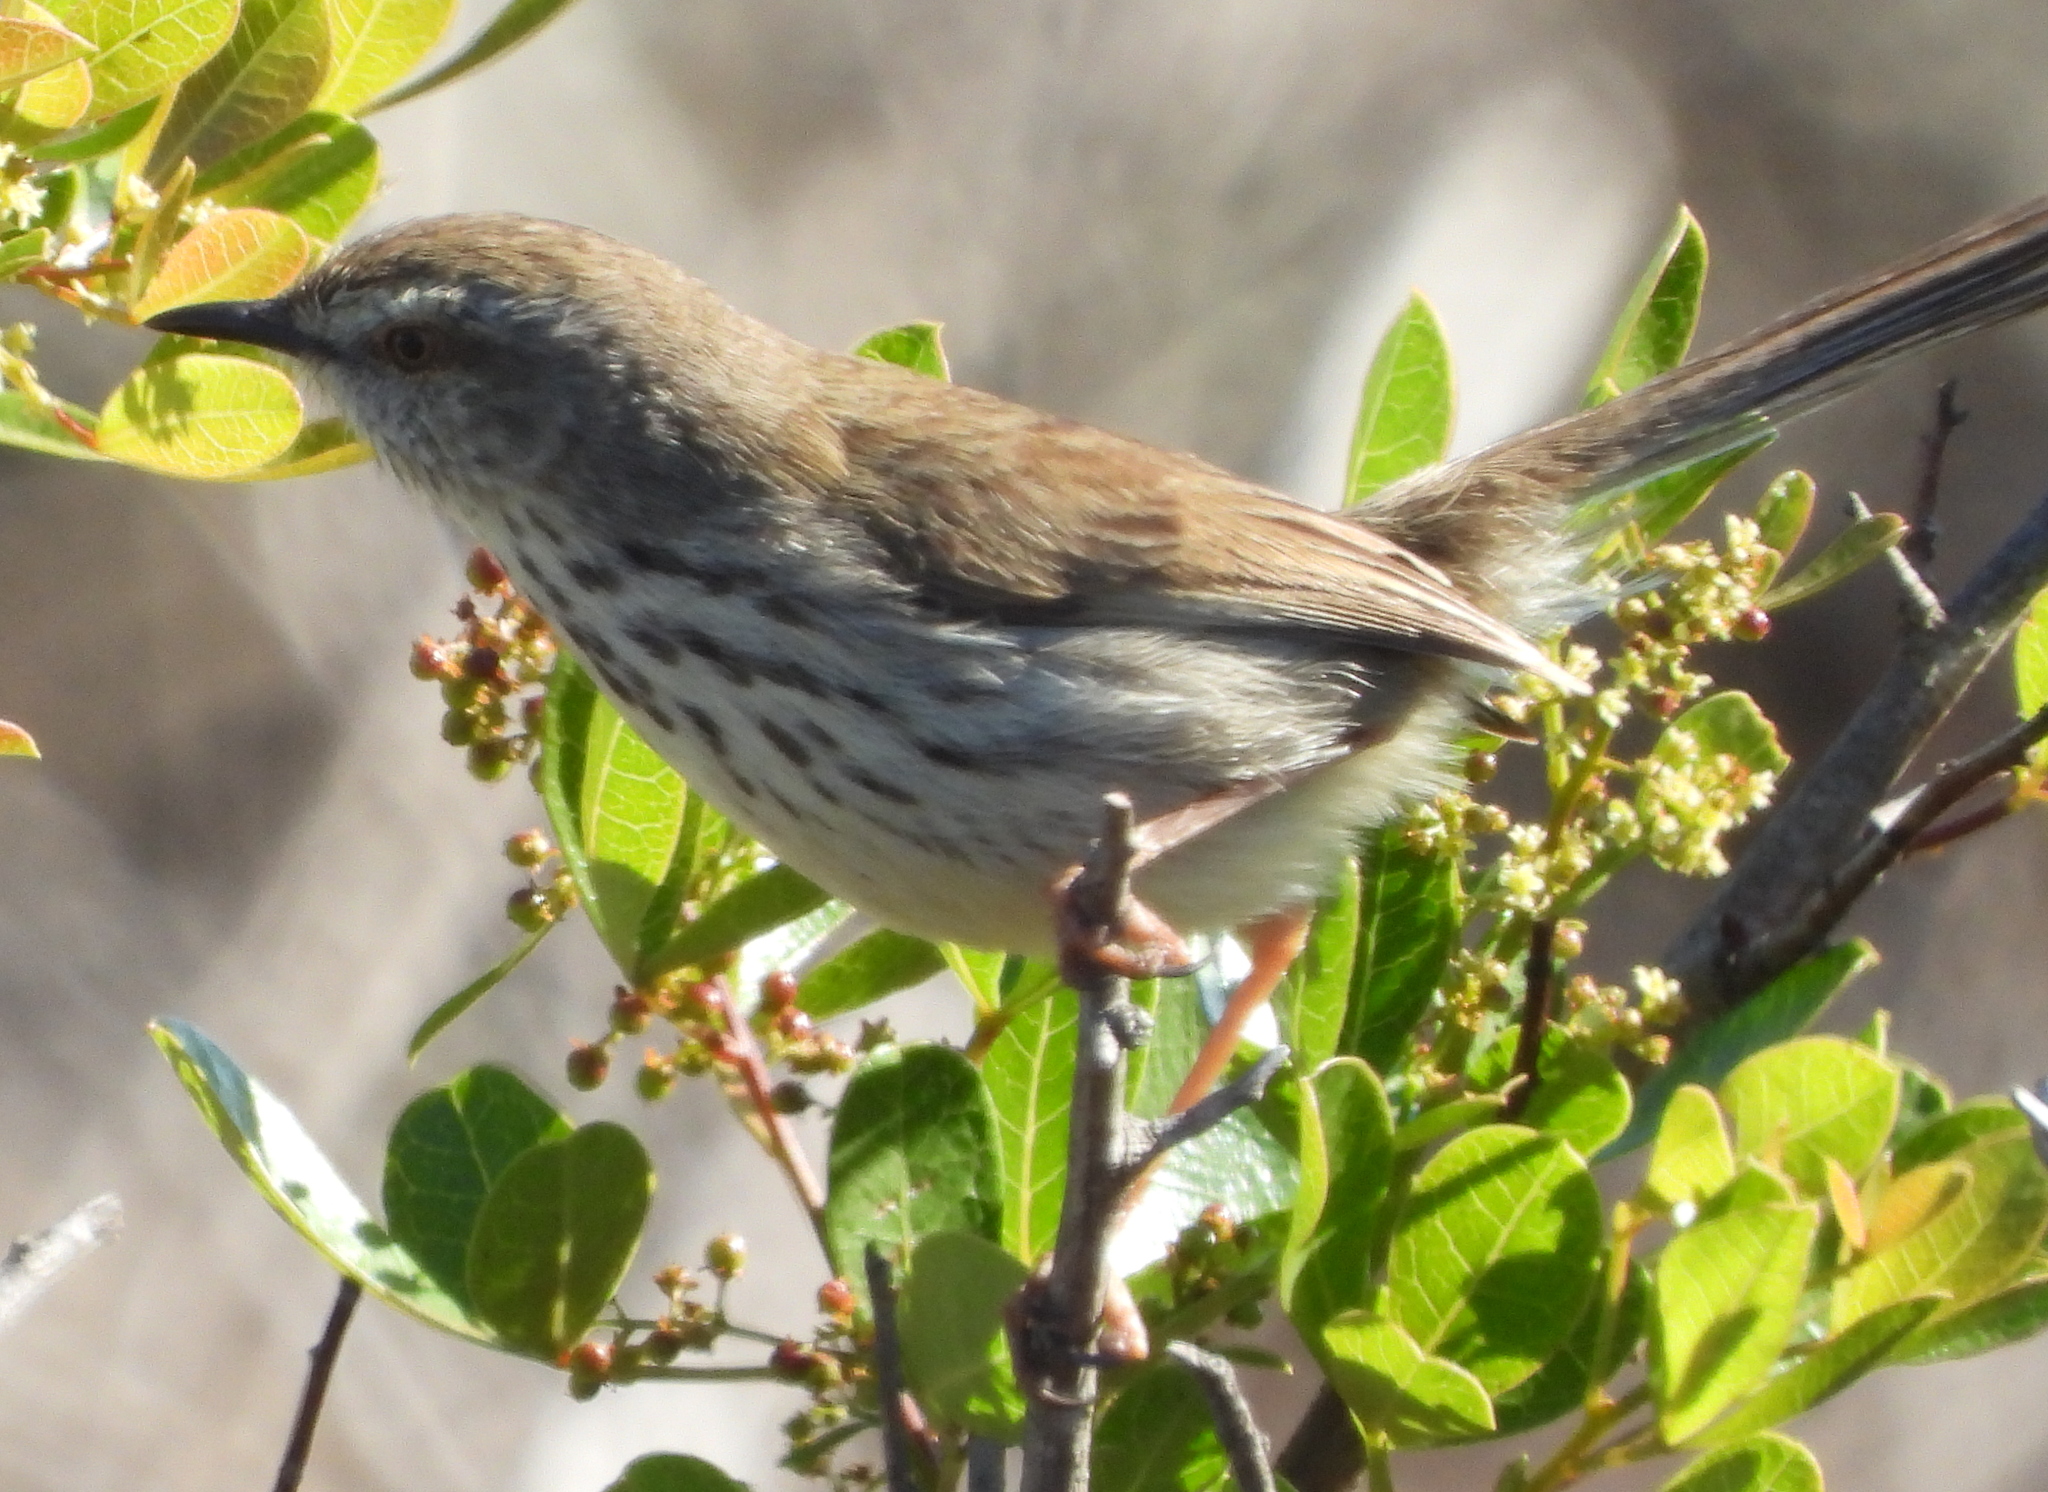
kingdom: Animalia
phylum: Chordata
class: Aves
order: Passeriformes
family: Cisticolidae
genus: Prinia
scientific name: Prinia maculosa
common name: Karoo prinia
